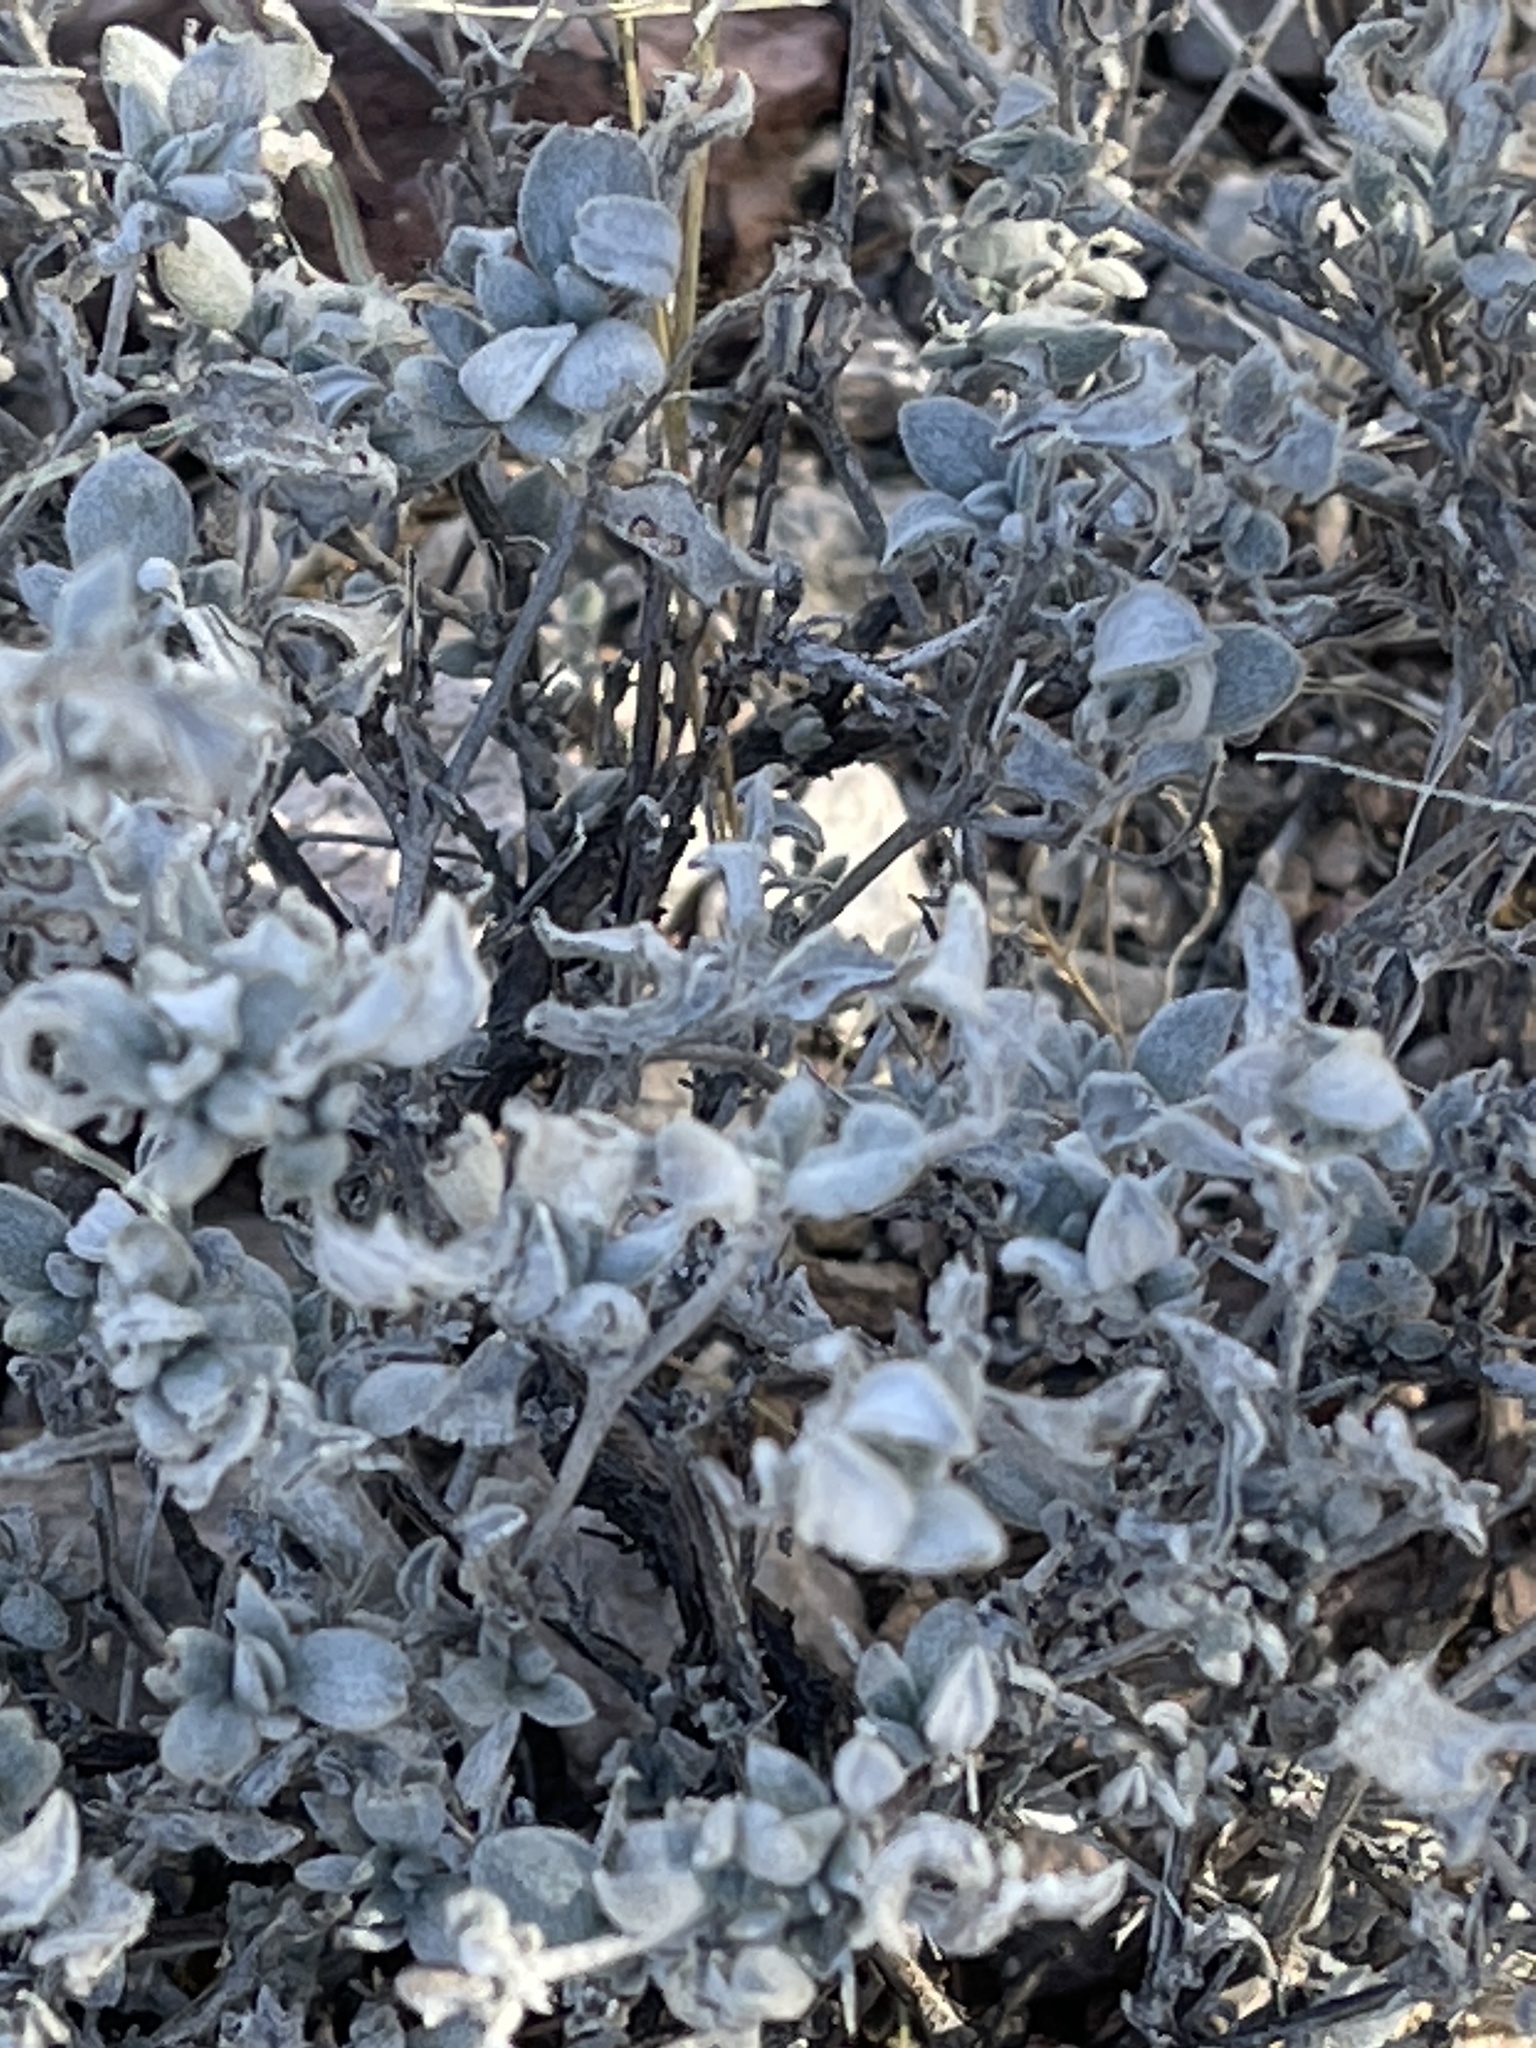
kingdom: Plantae
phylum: Tracheophyta
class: Magnoliopsida
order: Boraginales
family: Ehretiaceae
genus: Tiquilia
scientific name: Tiquilia canescens
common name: Hairy tiquilia
